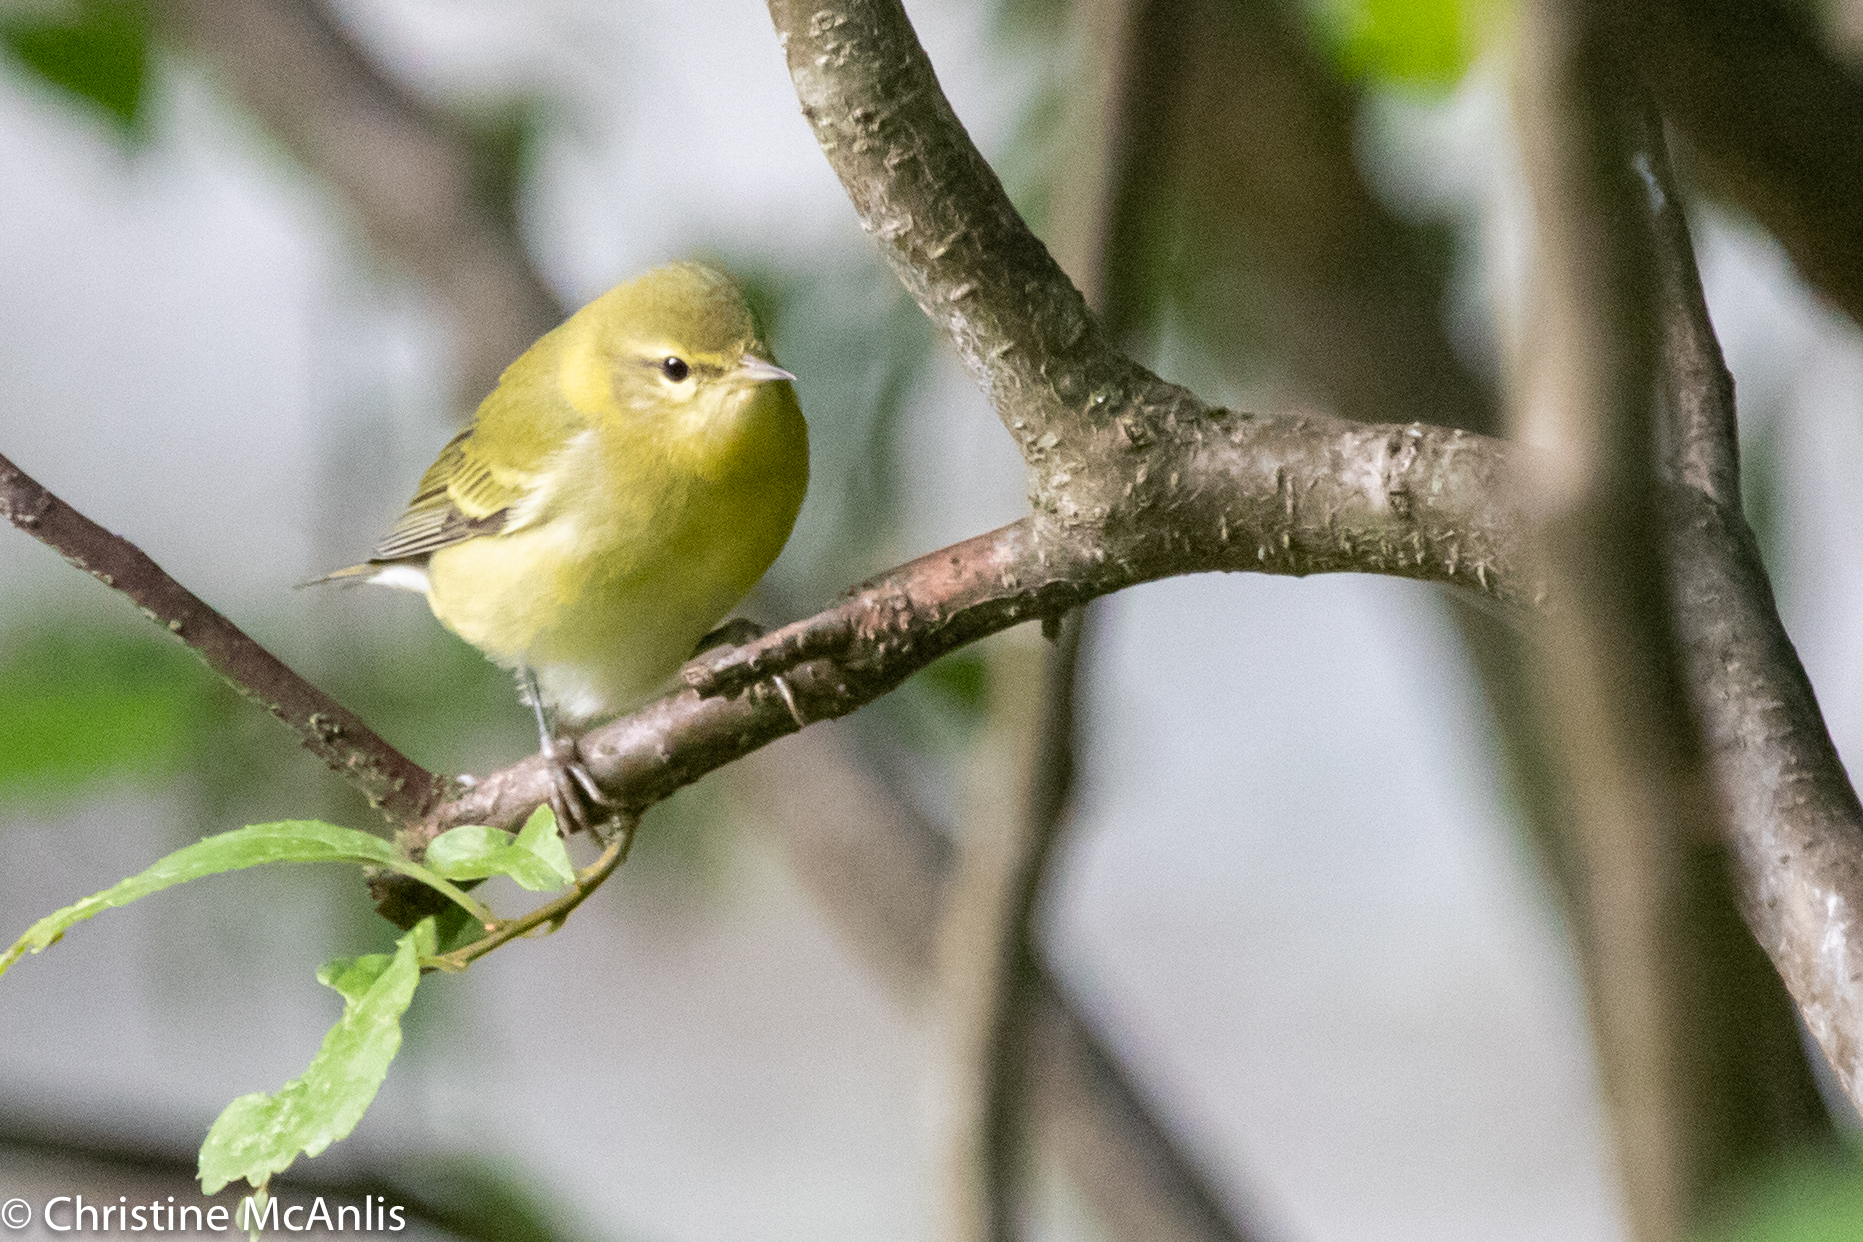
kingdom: Animalia
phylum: Chordata
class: Aves
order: Passeriformes
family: Parulidae
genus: Leiothlypis
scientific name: Leiothlypis peregrina
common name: Tennessee warbler
